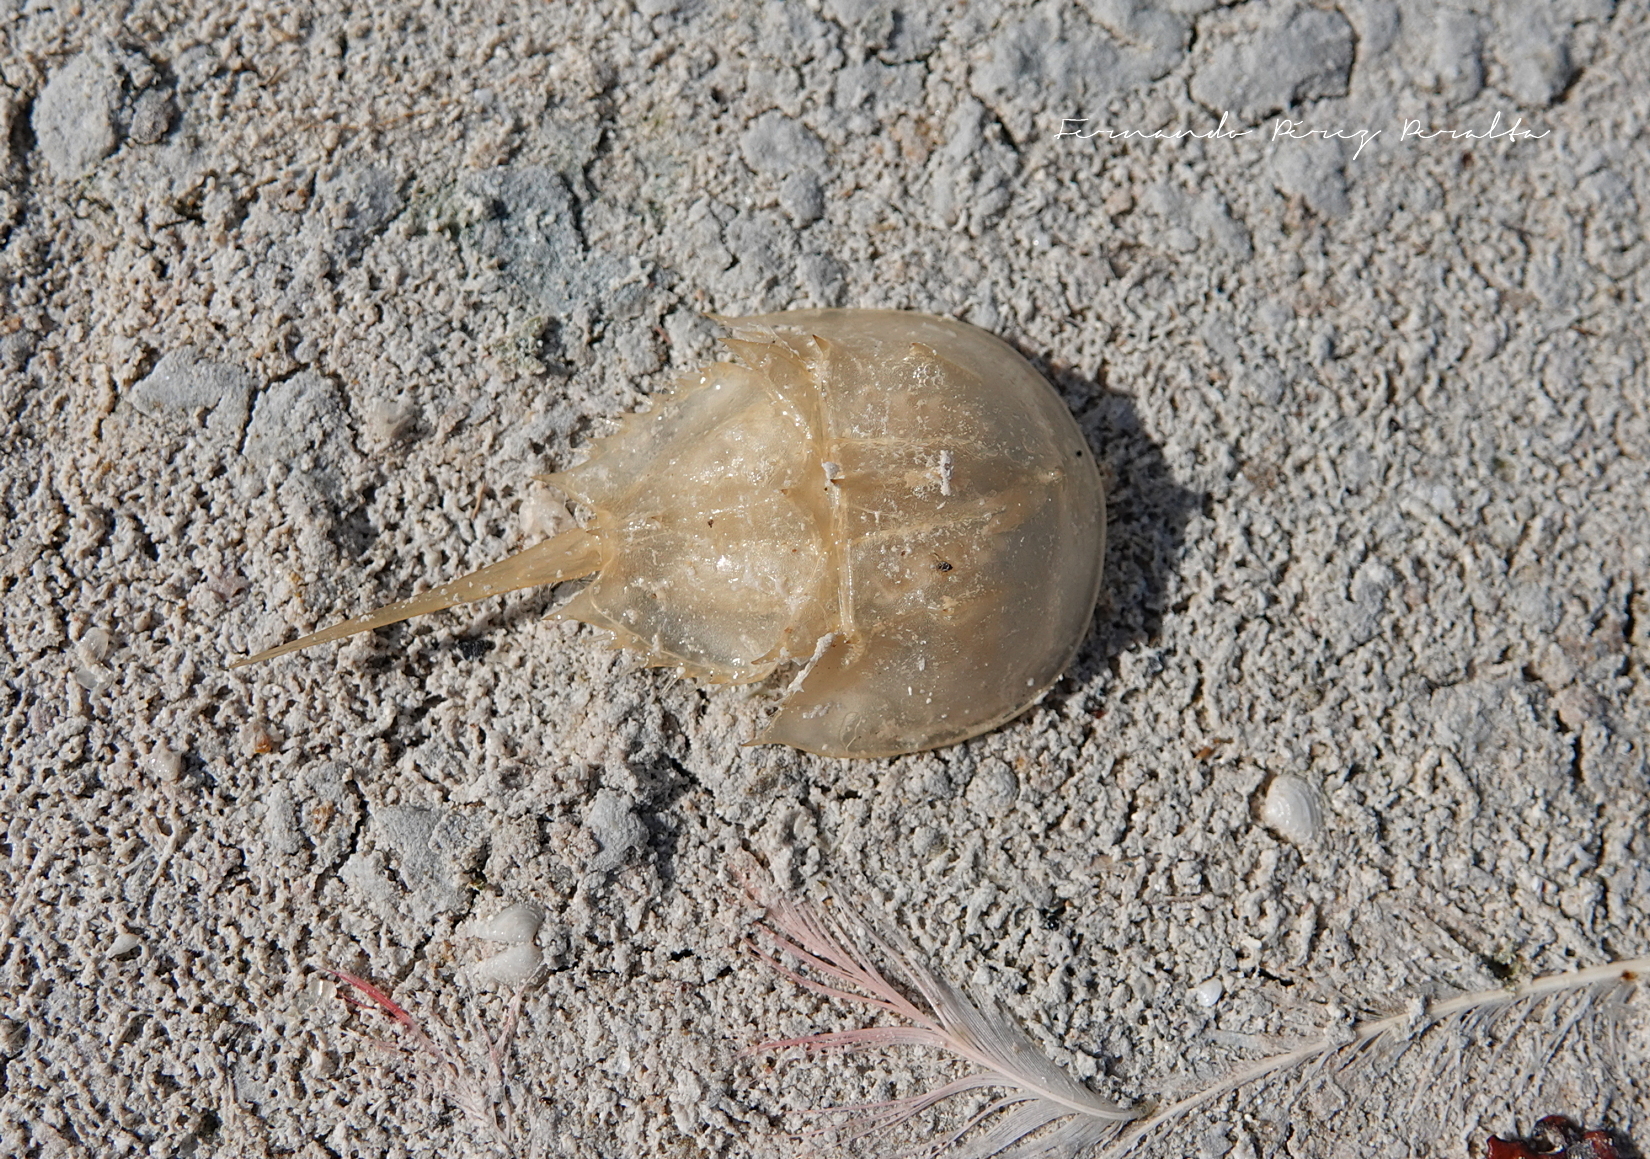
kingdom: Animalia
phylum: Arthropoda
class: Merostomata
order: Xiphosurida
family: Limulidae
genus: Limulus
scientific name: Limulus polyphemus
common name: Horseshoe crab
